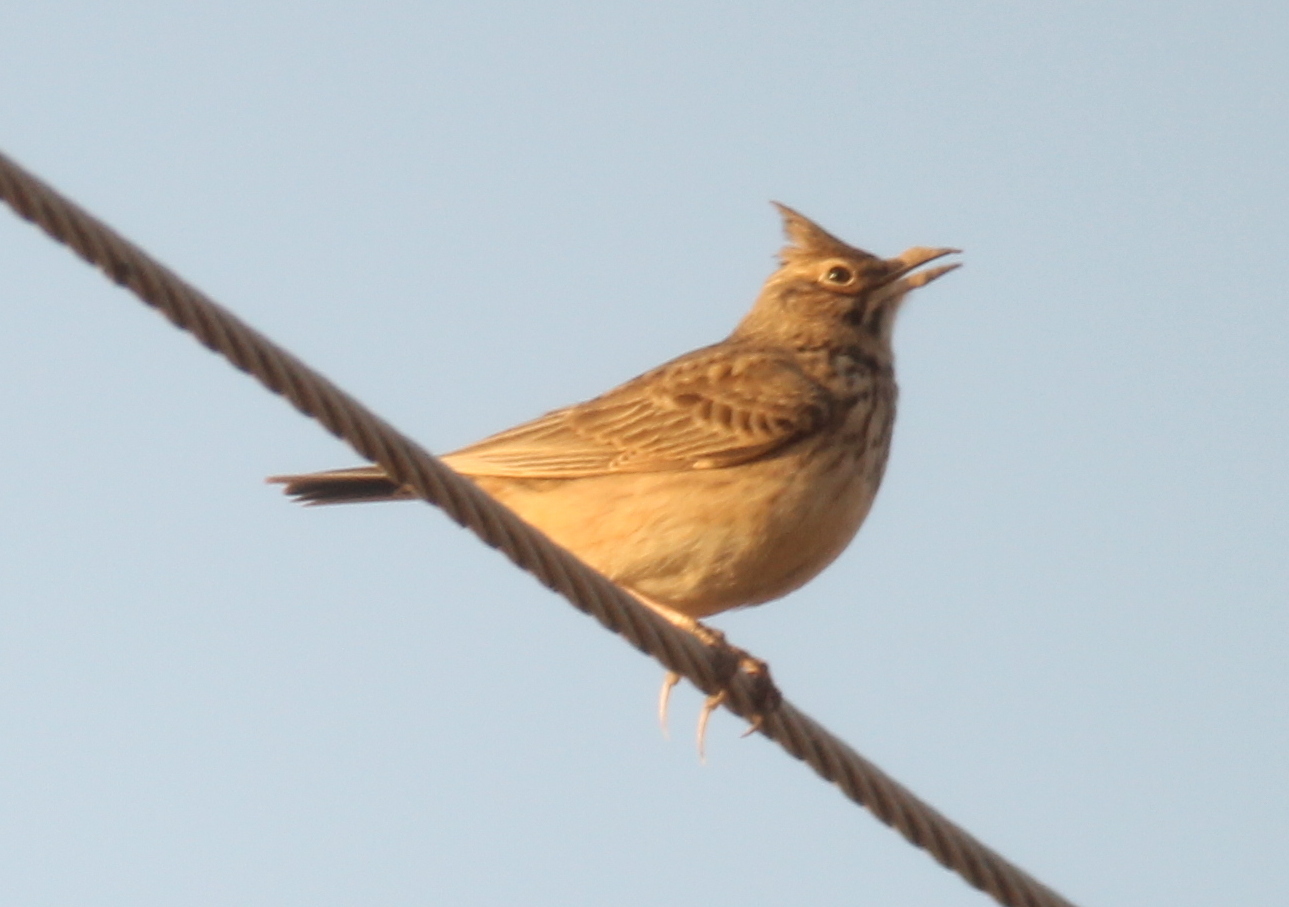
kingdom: Animalia
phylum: Chordata
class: Aves
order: Passeriformes
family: Alaudidae
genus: Galerida
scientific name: Galerida cristata
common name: Crested lark
